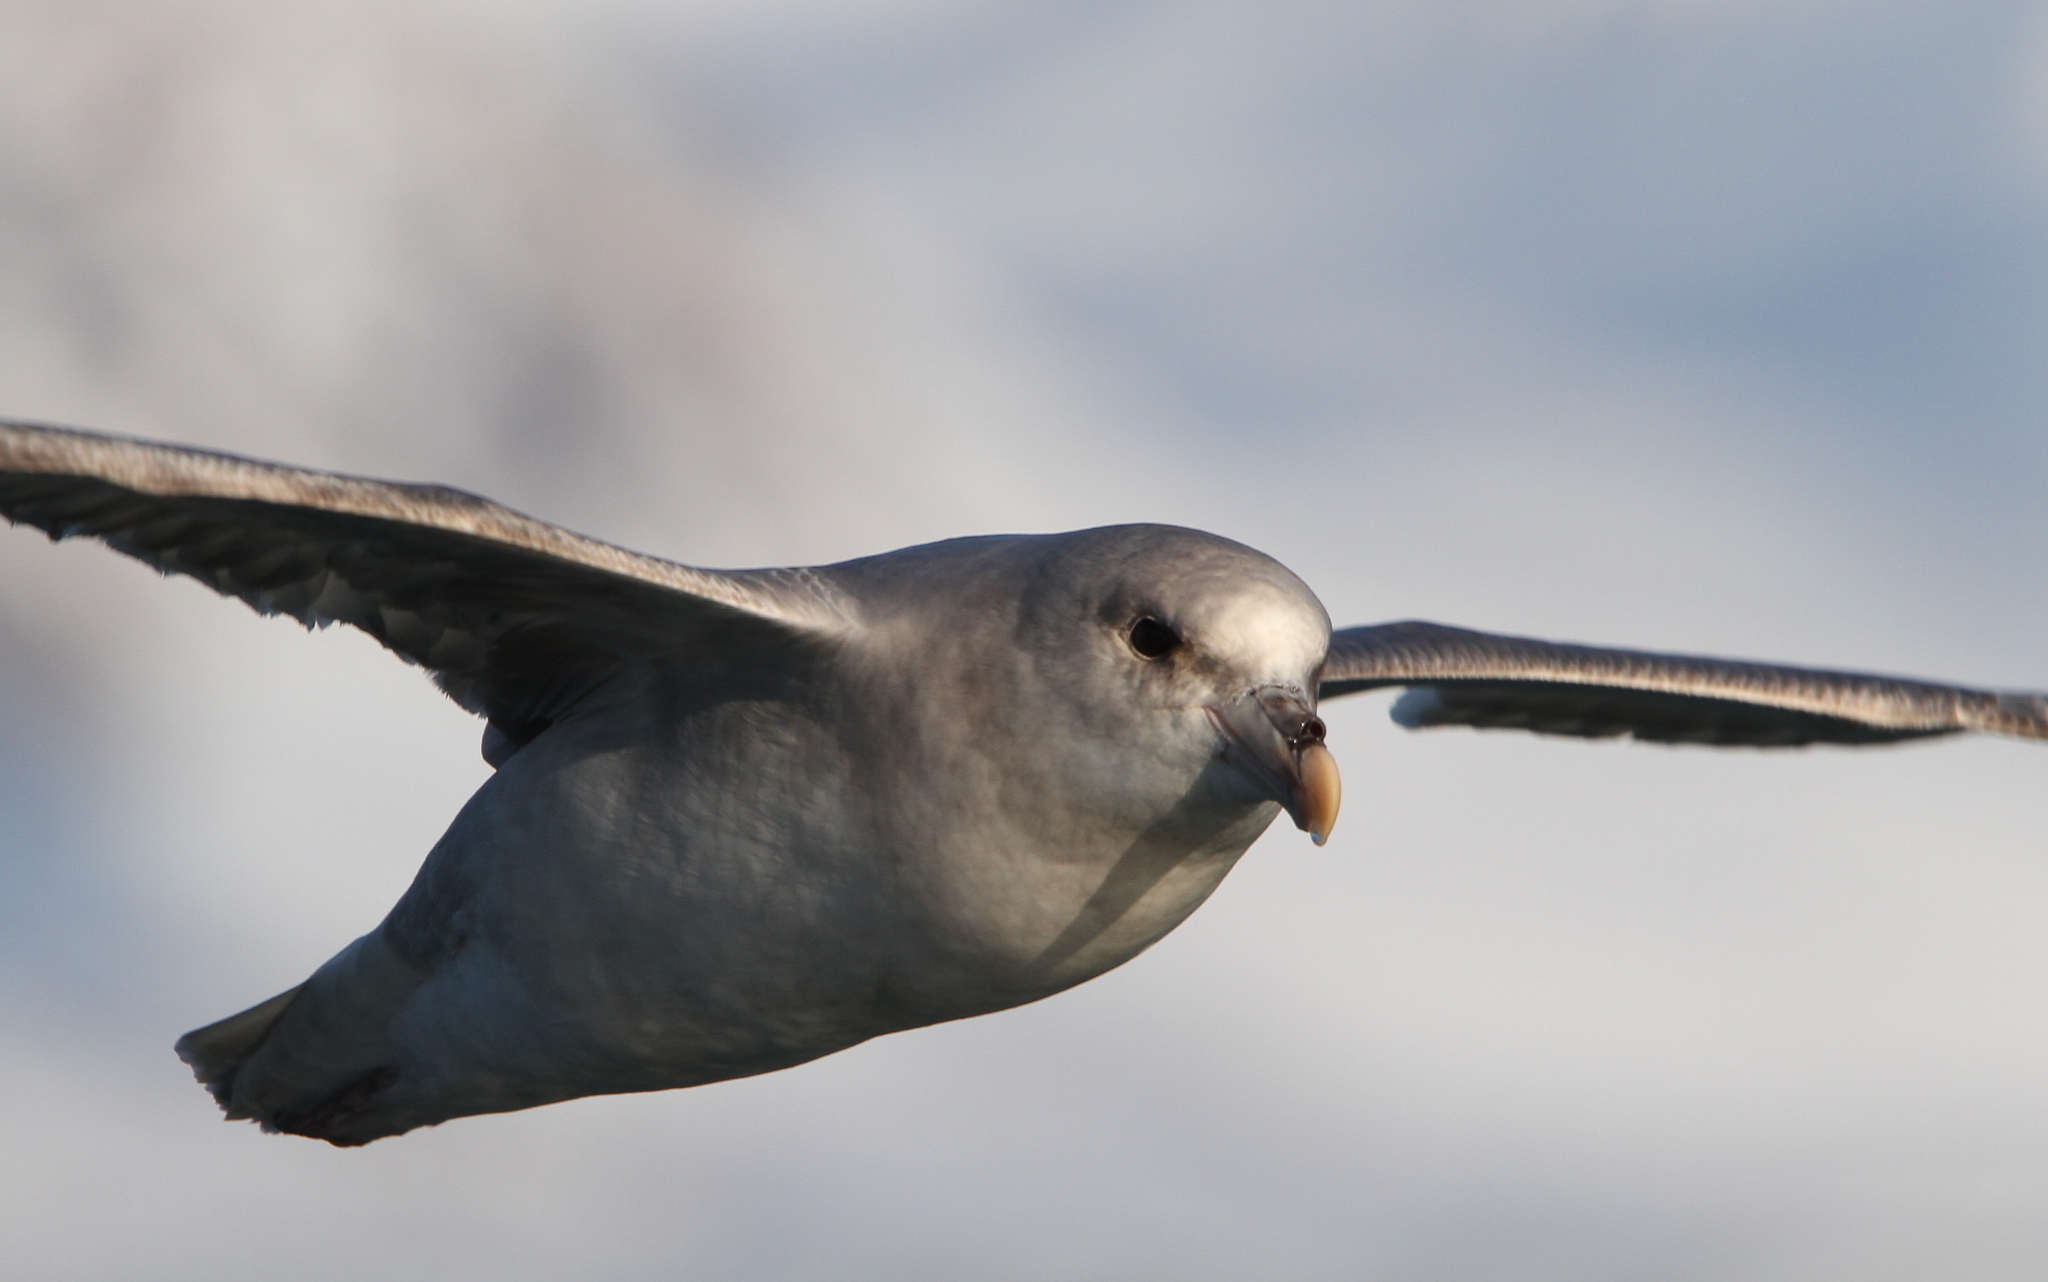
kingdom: Animalia
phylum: Chordata
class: Aves
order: Procellariiformes
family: Procellariidae
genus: Fulmarus
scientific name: Fulmarus glacialis
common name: Northern fulmar
